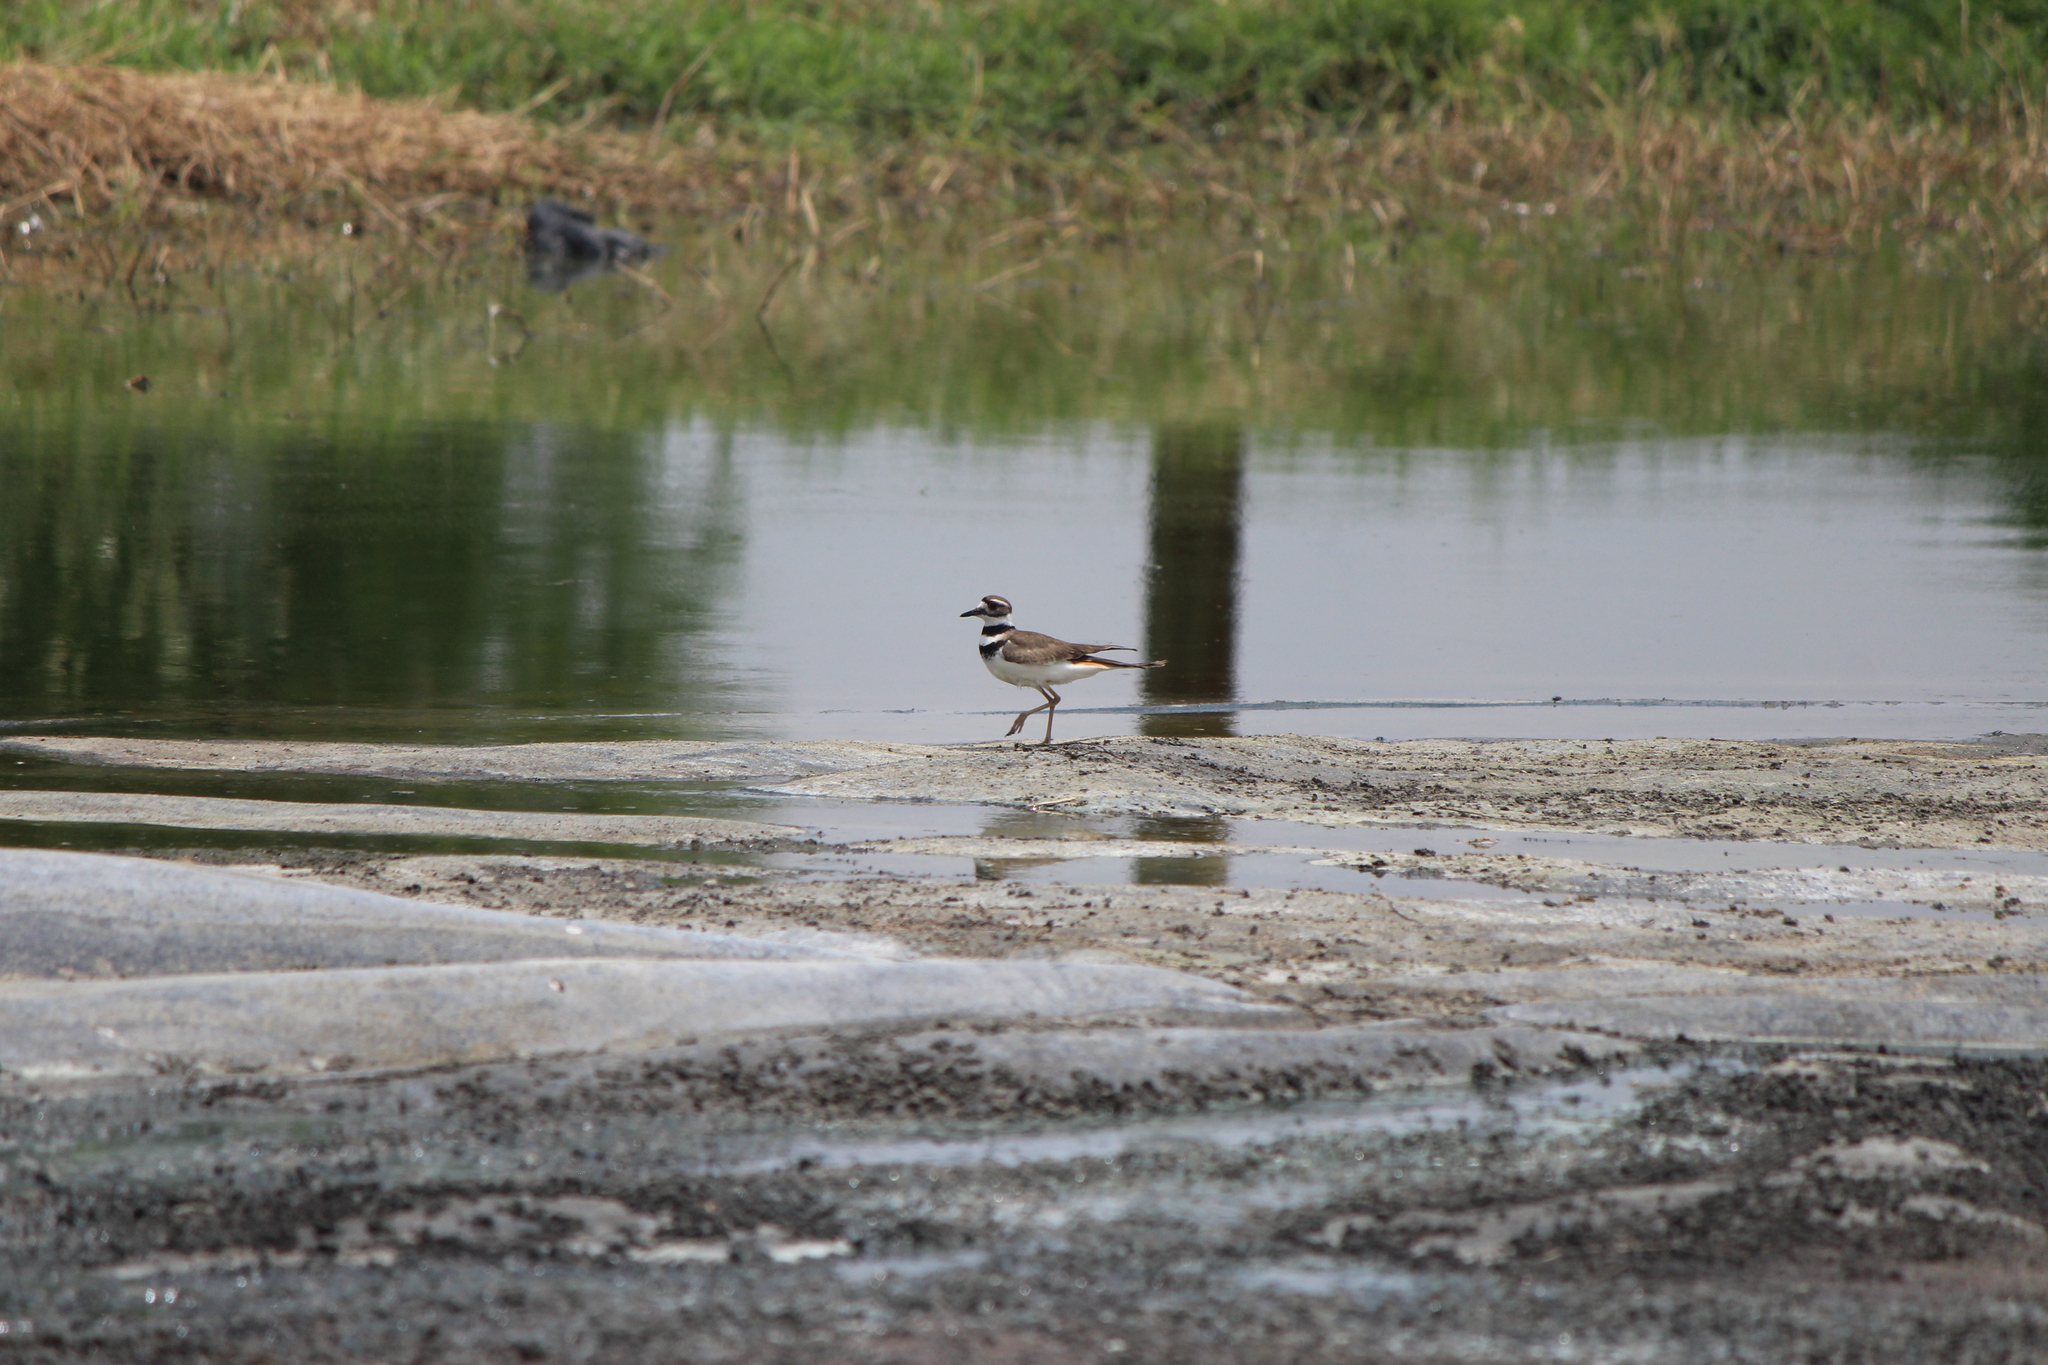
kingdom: Animalia
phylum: Chordata
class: Aves
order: Charadriiformes
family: Charadriidae
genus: Charadrius
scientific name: Charadrius vociferus
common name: Killdeer
